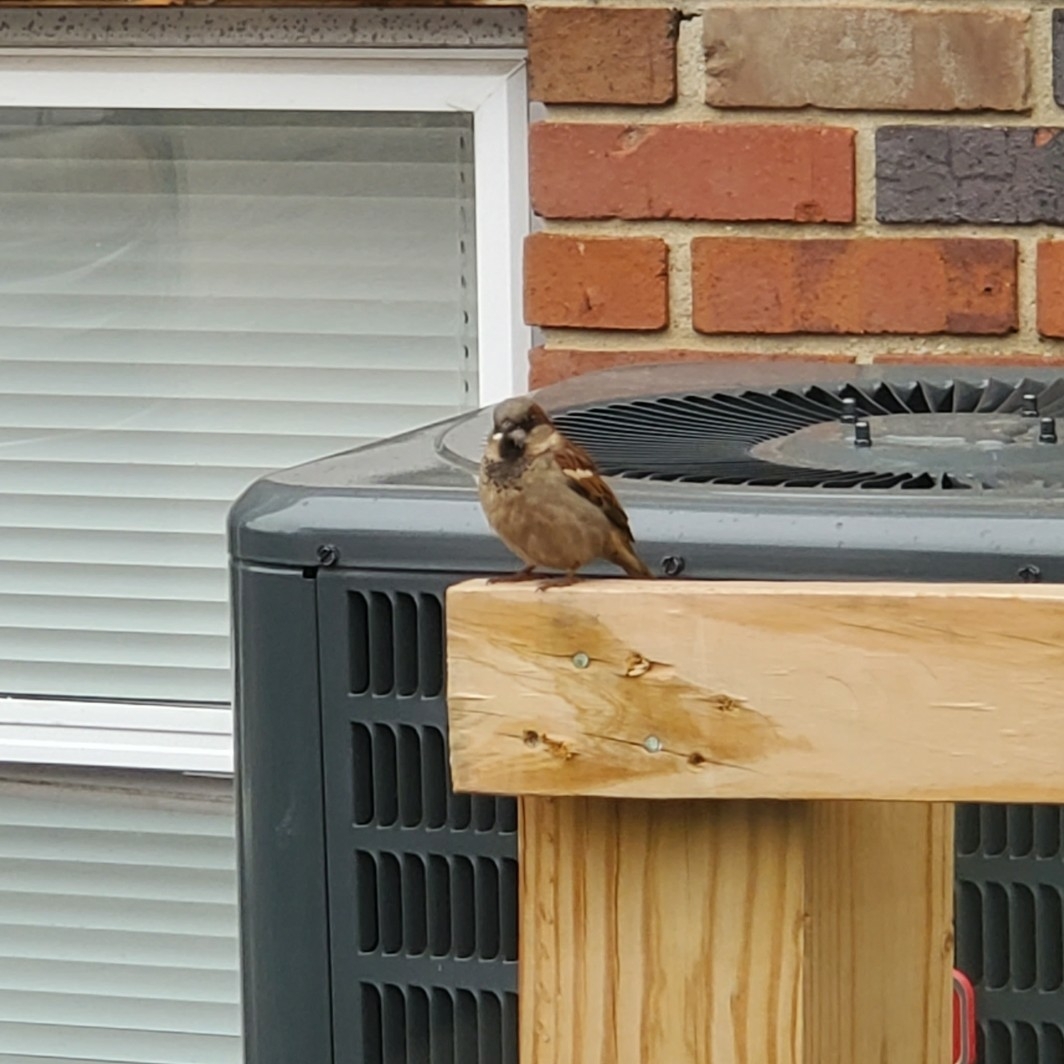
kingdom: Animalia
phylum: Chordata
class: Aves
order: Passeriformes
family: Passeridae
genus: Passer
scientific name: Passer domesticus
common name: House sparrow
